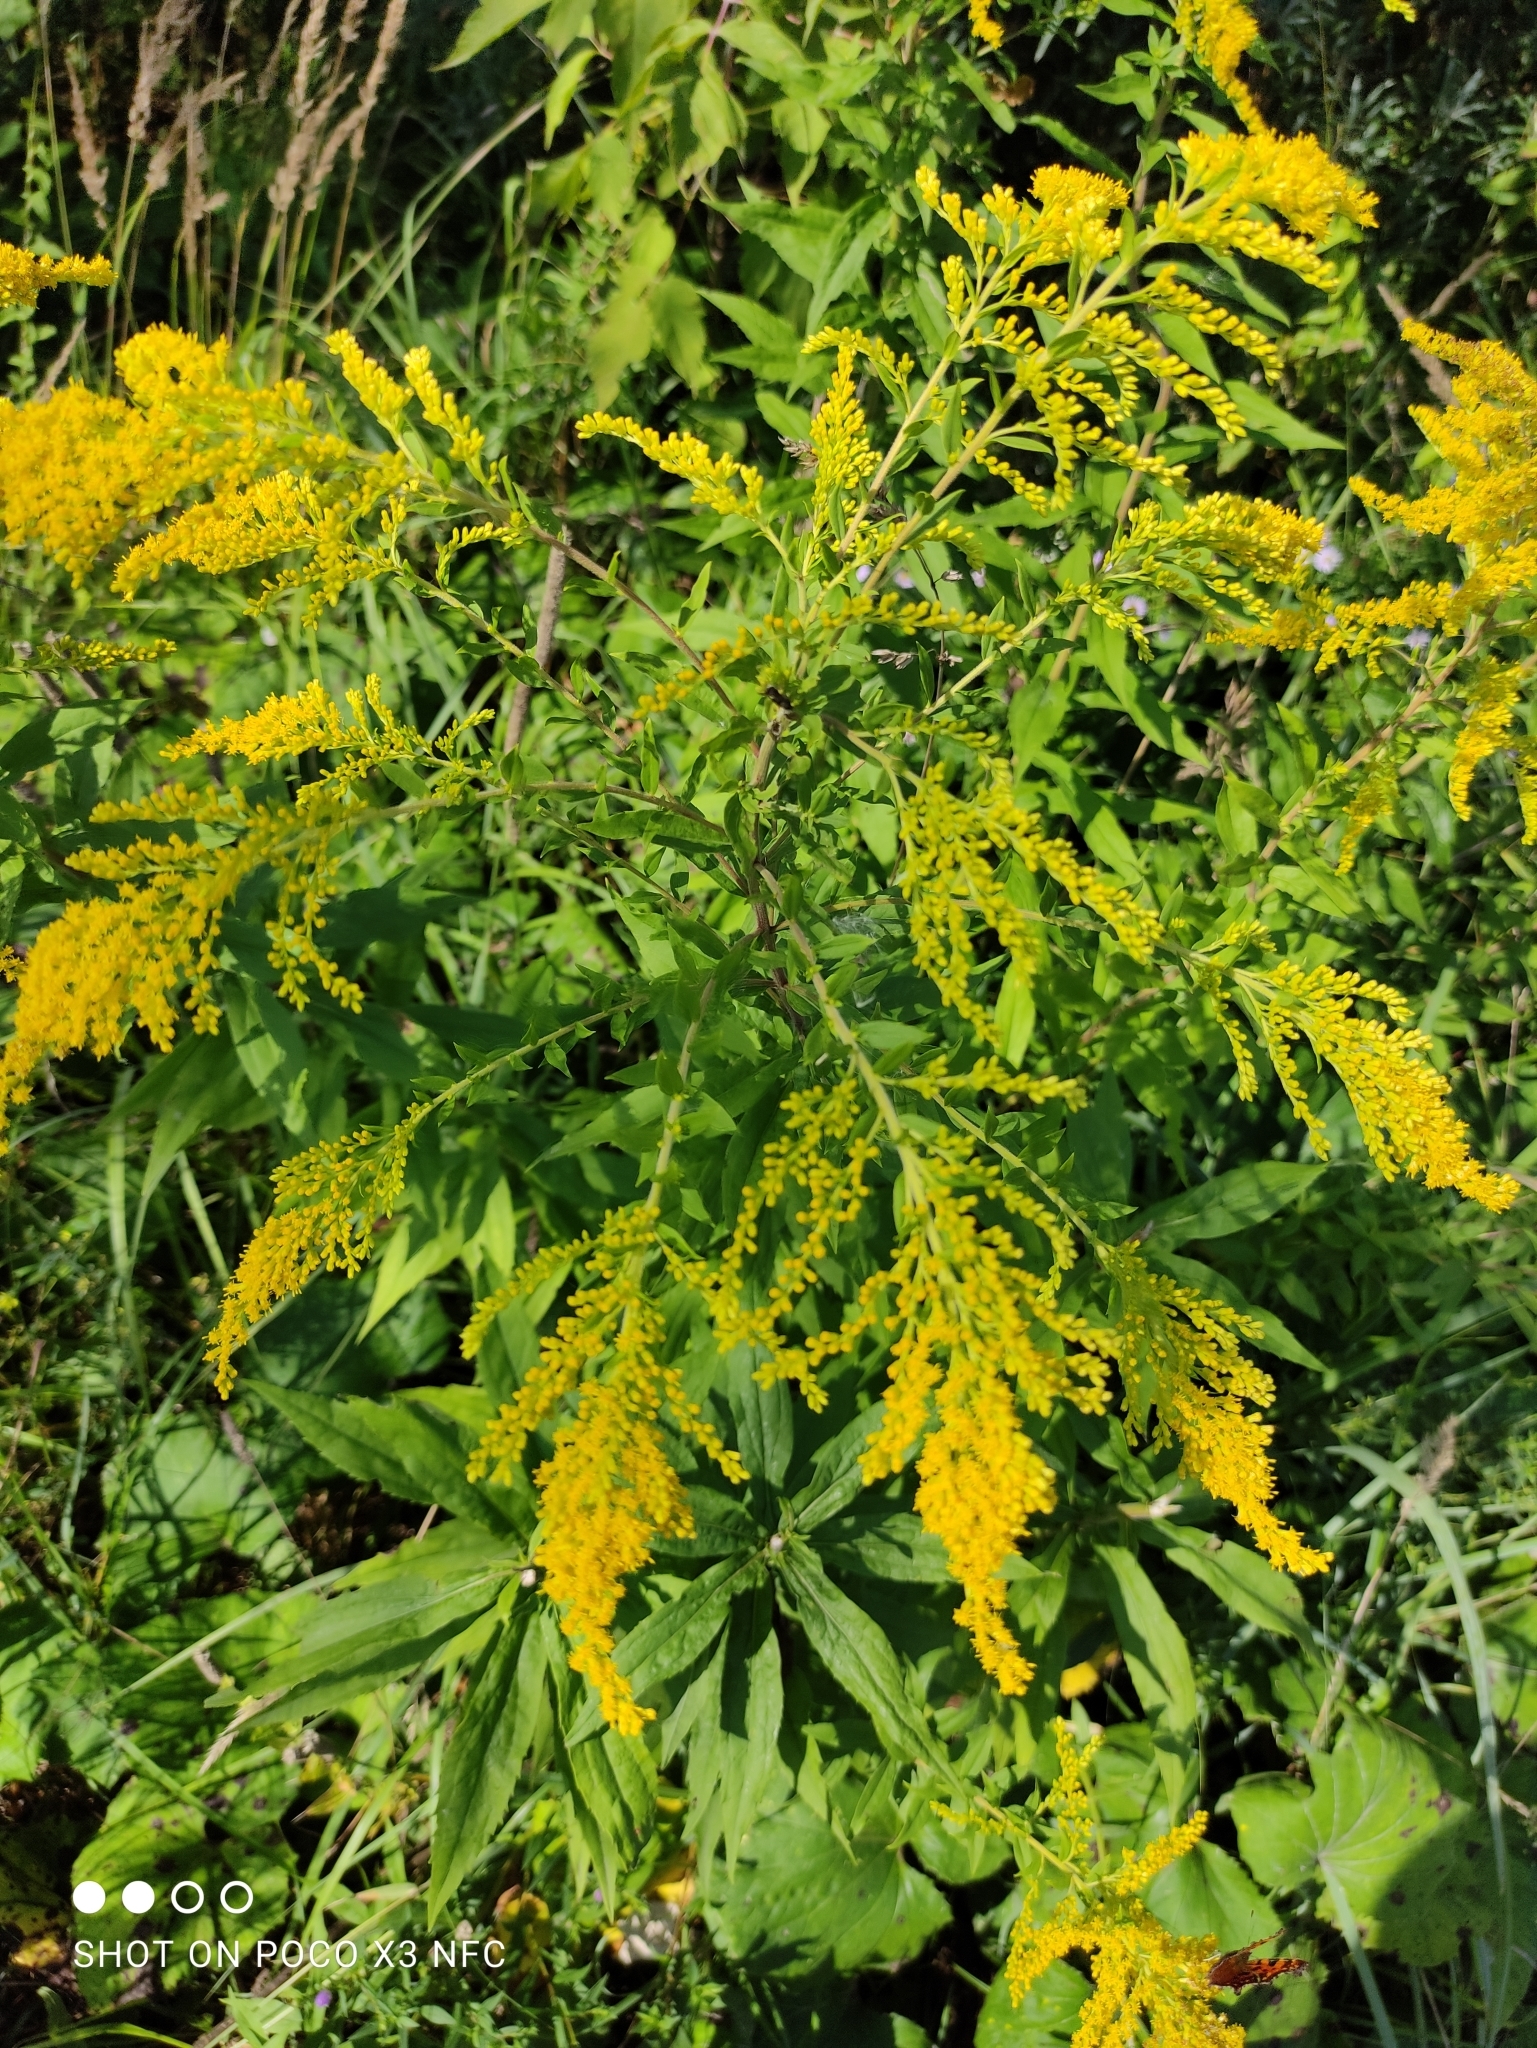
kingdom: Plantae
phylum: Tracheophyta
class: Magnoliopsida
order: Asterales
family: Asteraceae
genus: Solidago
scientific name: Solidago canadensis
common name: Canada goldenrod
